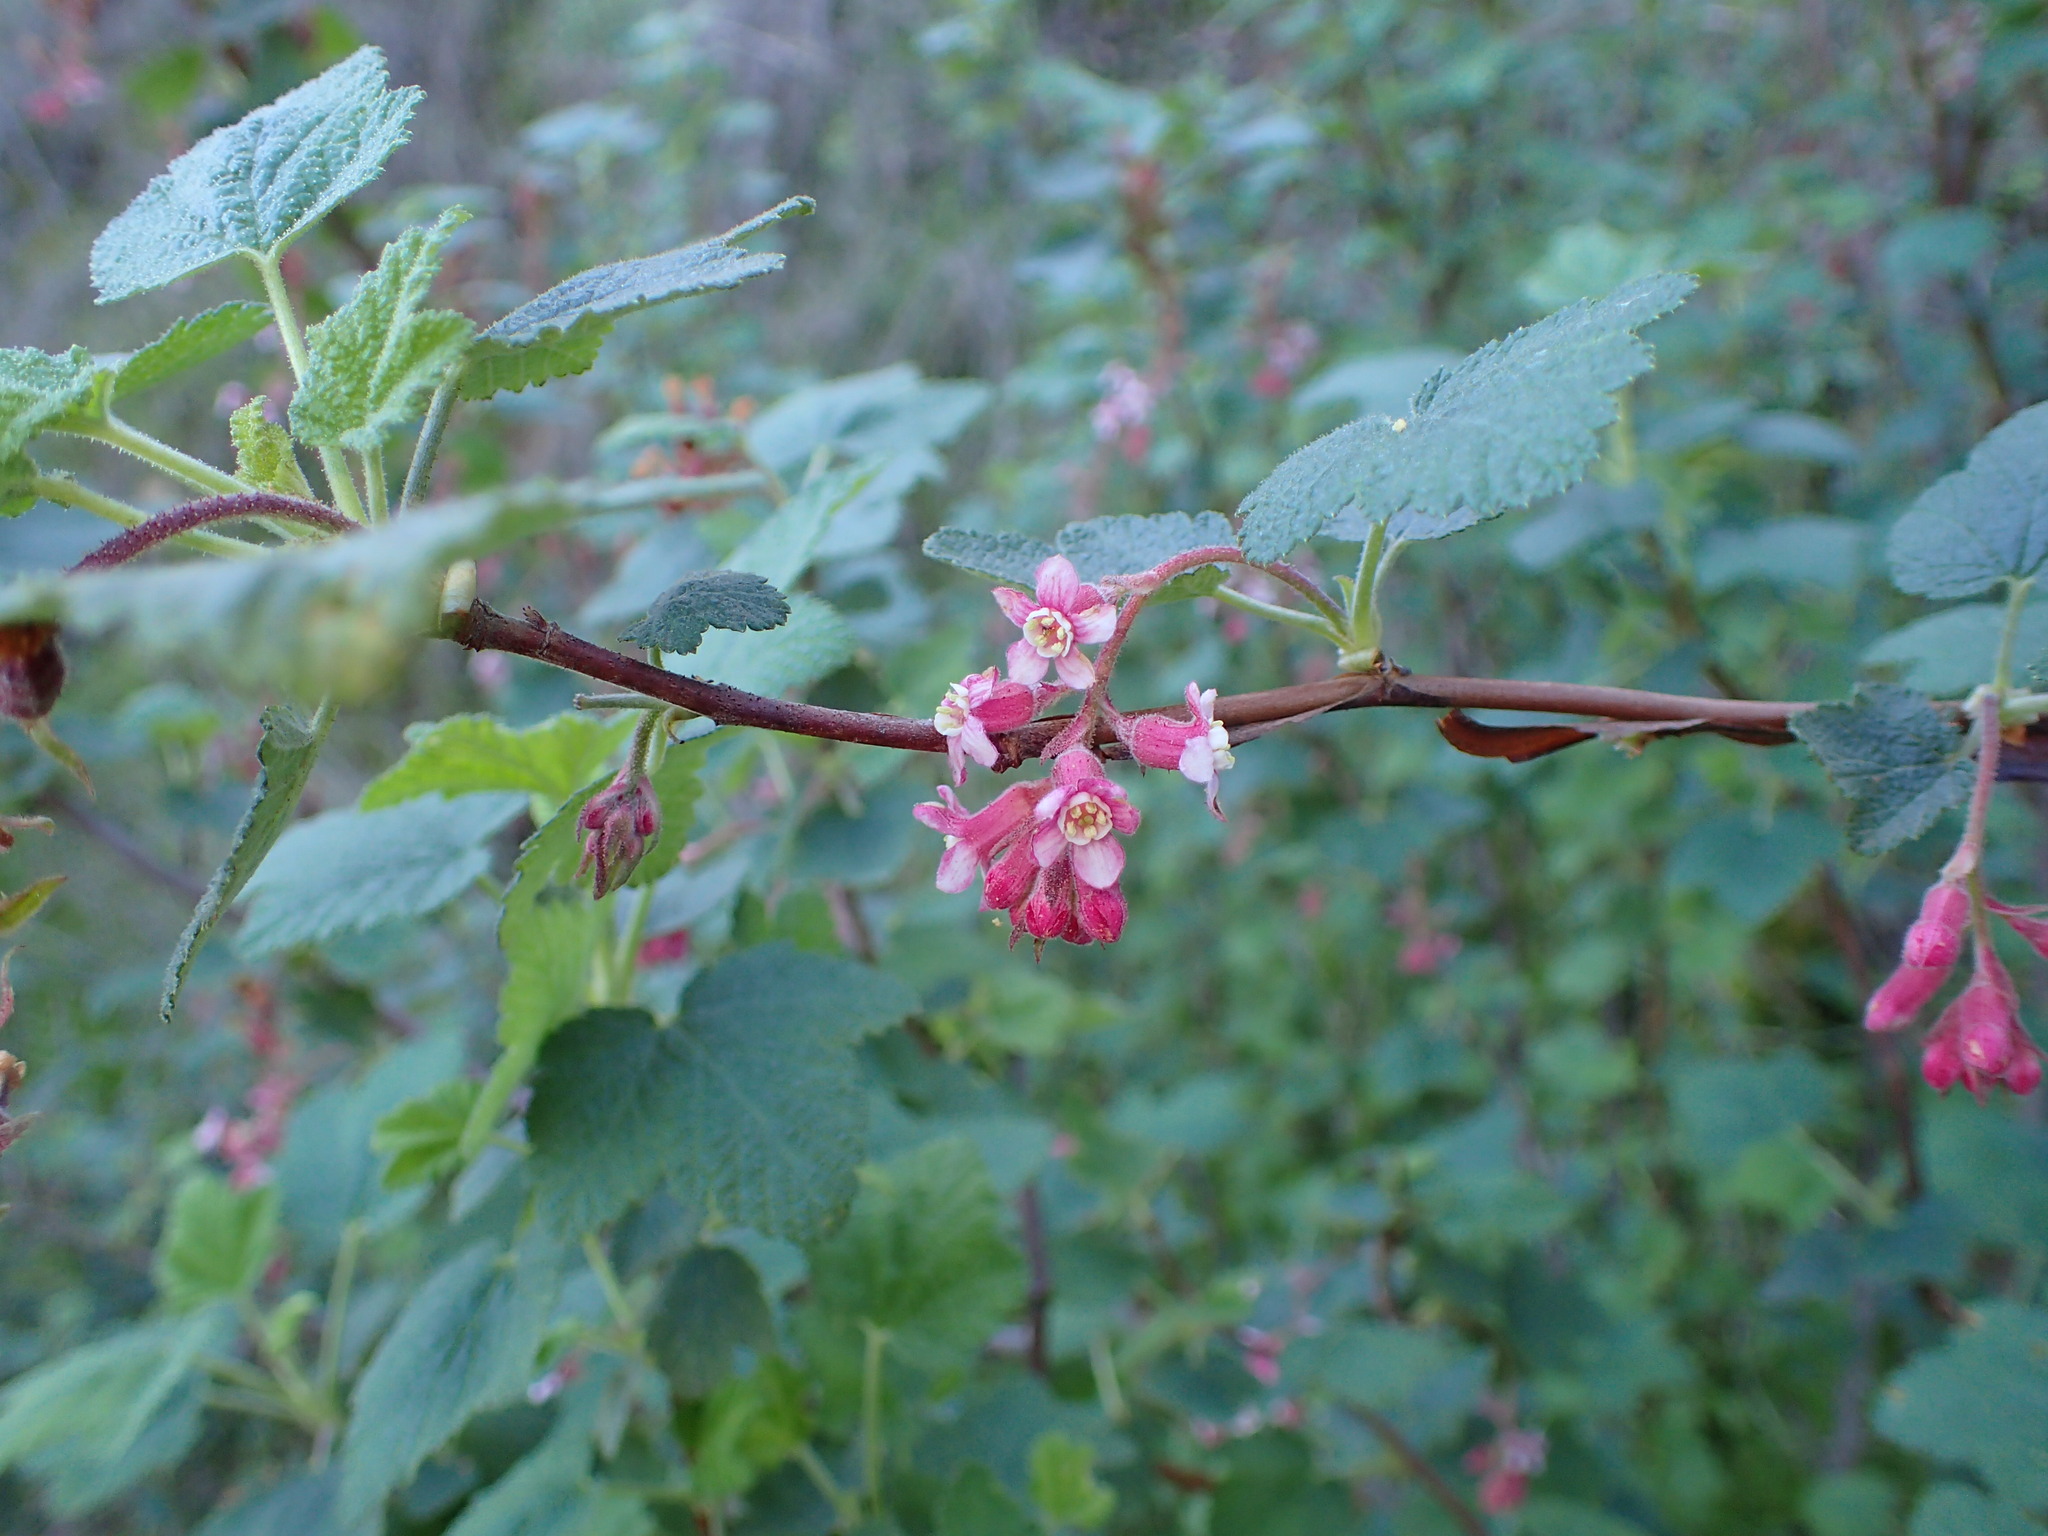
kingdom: Plantae
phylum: Tracheophyta
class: Magnoliopsida
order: Saxifragales
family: Grossulariaceae
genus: Ribes
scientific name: Ribes malvaceum
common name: Chaparral currant
